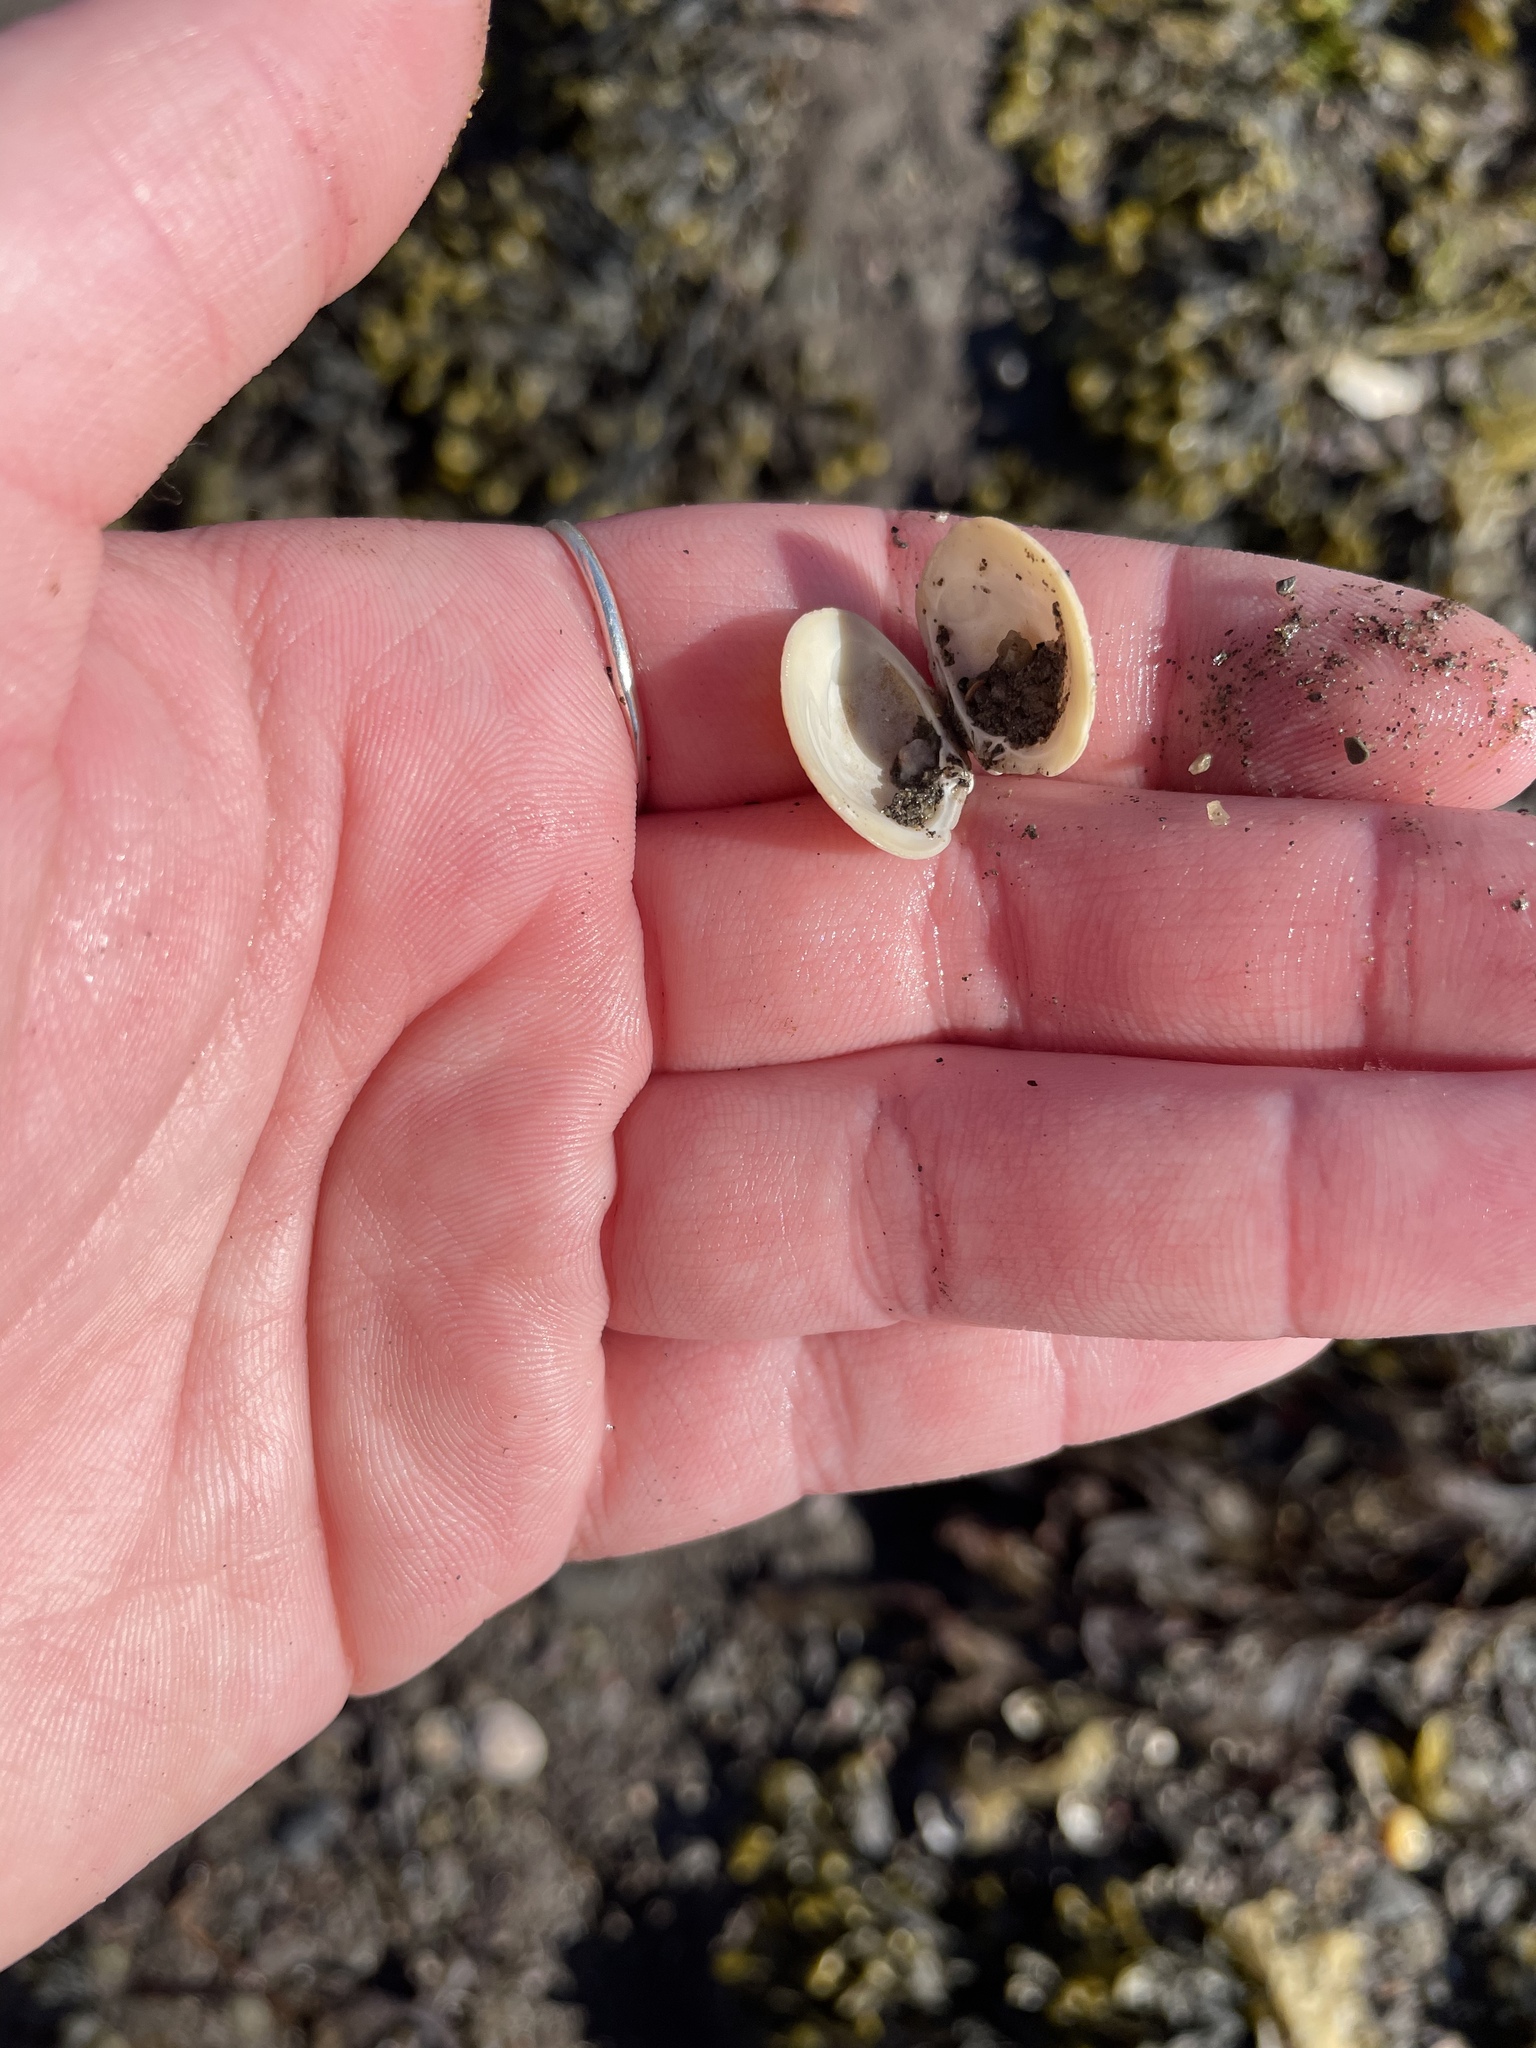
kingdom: Animalia
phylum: Mollusca
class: Bivalvia
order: Venerida
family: Veneridae
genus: Mercenaria
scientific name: Mercenaria mercenaria
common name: American hard-shelled clam
